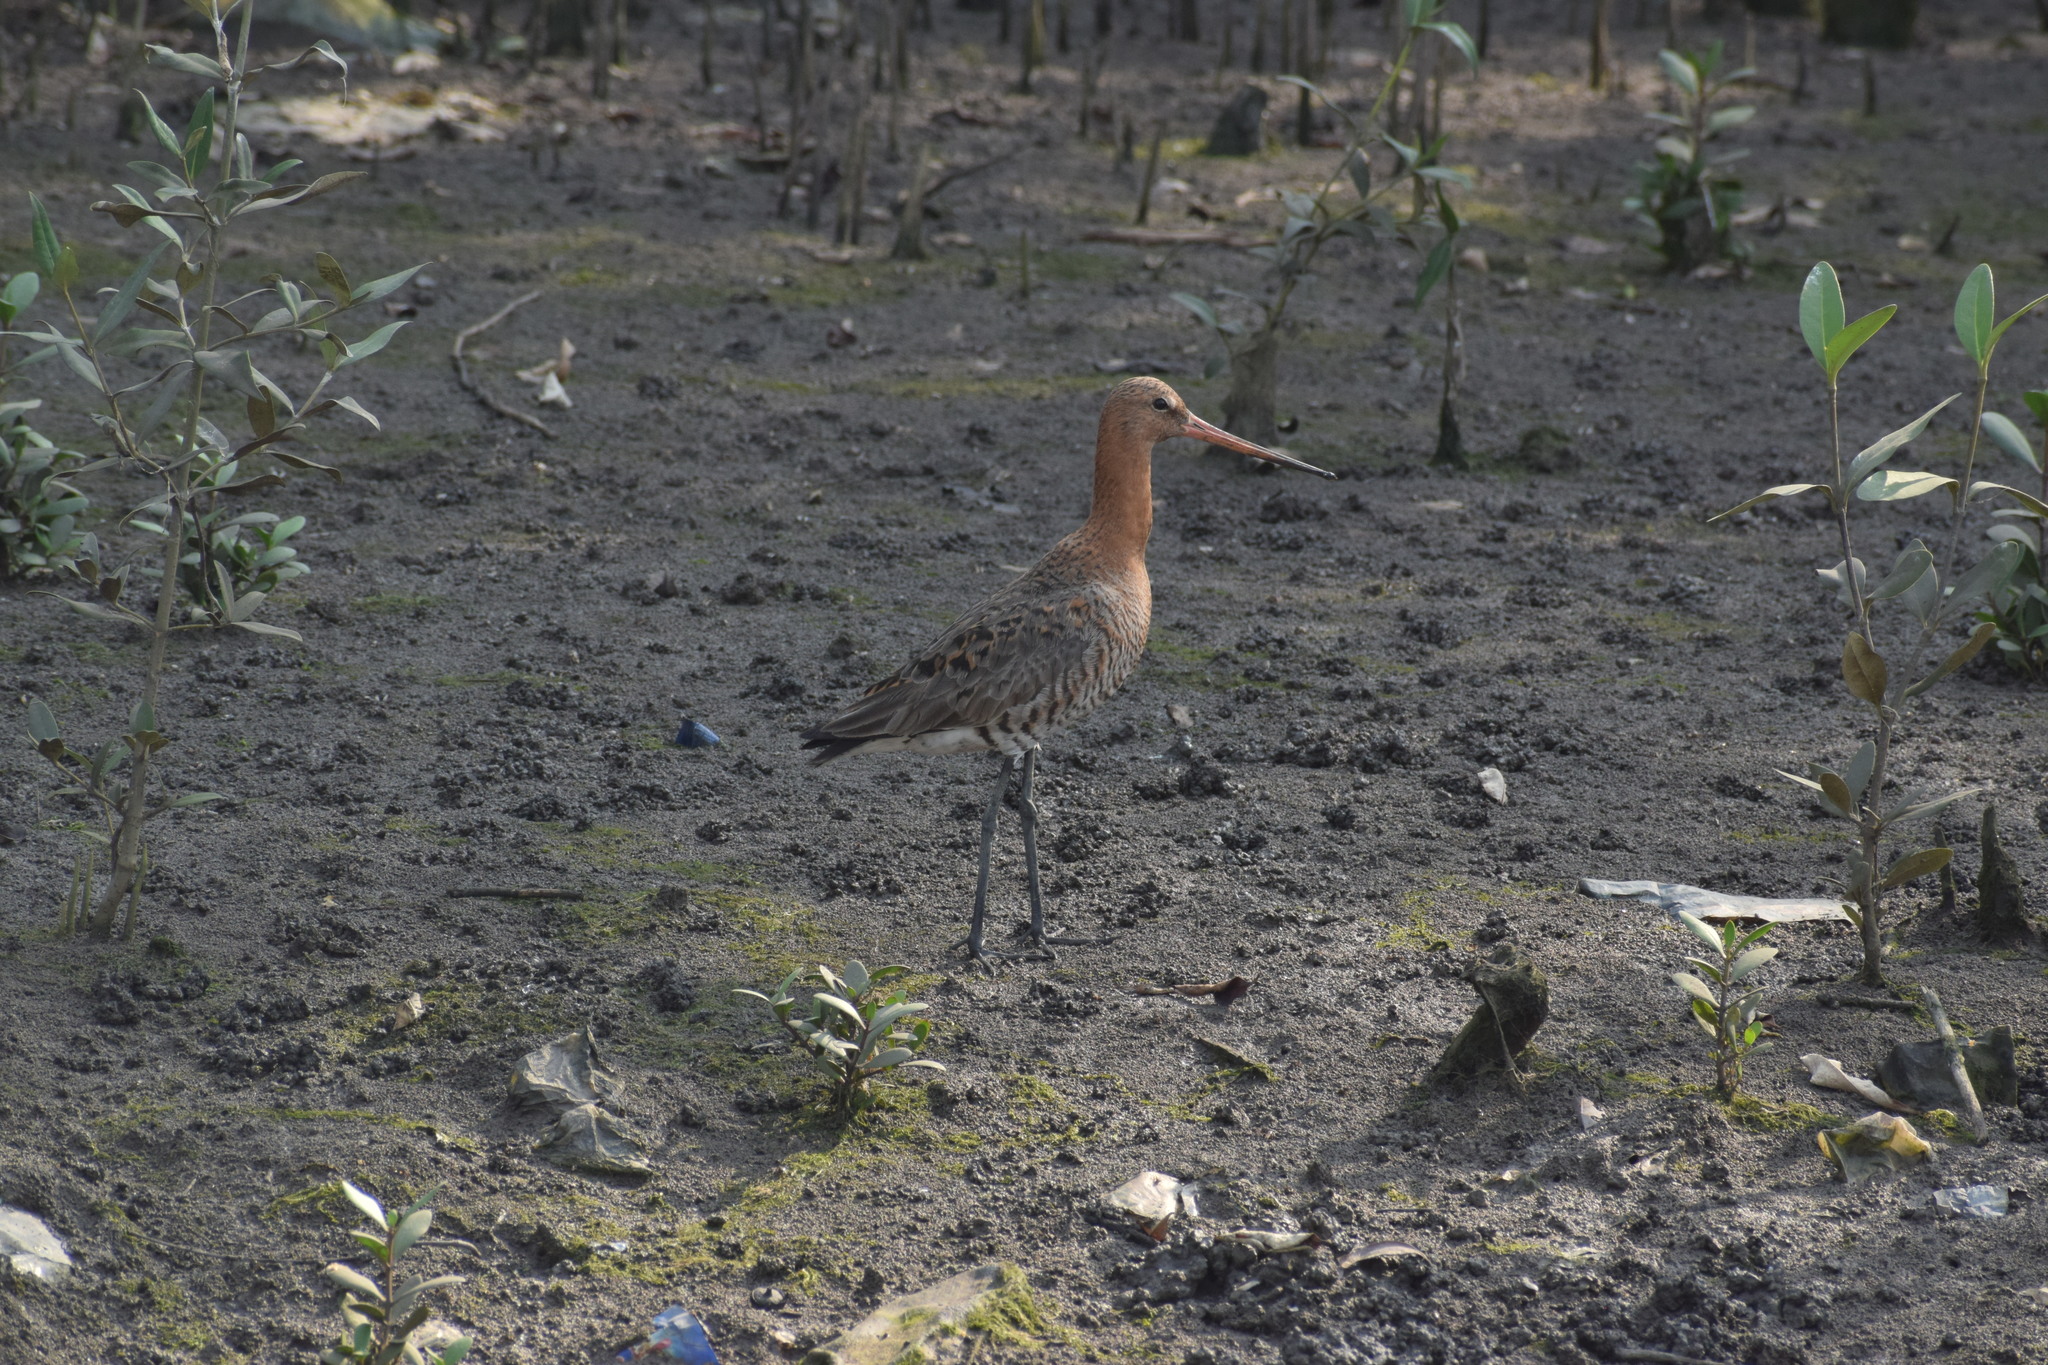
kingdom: Animalia
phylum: Chordata
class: Aves
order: Charadriiformes
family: Scolopacidae
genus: Limosa
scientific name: Limosa limosa
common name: Black-tailed godwit
